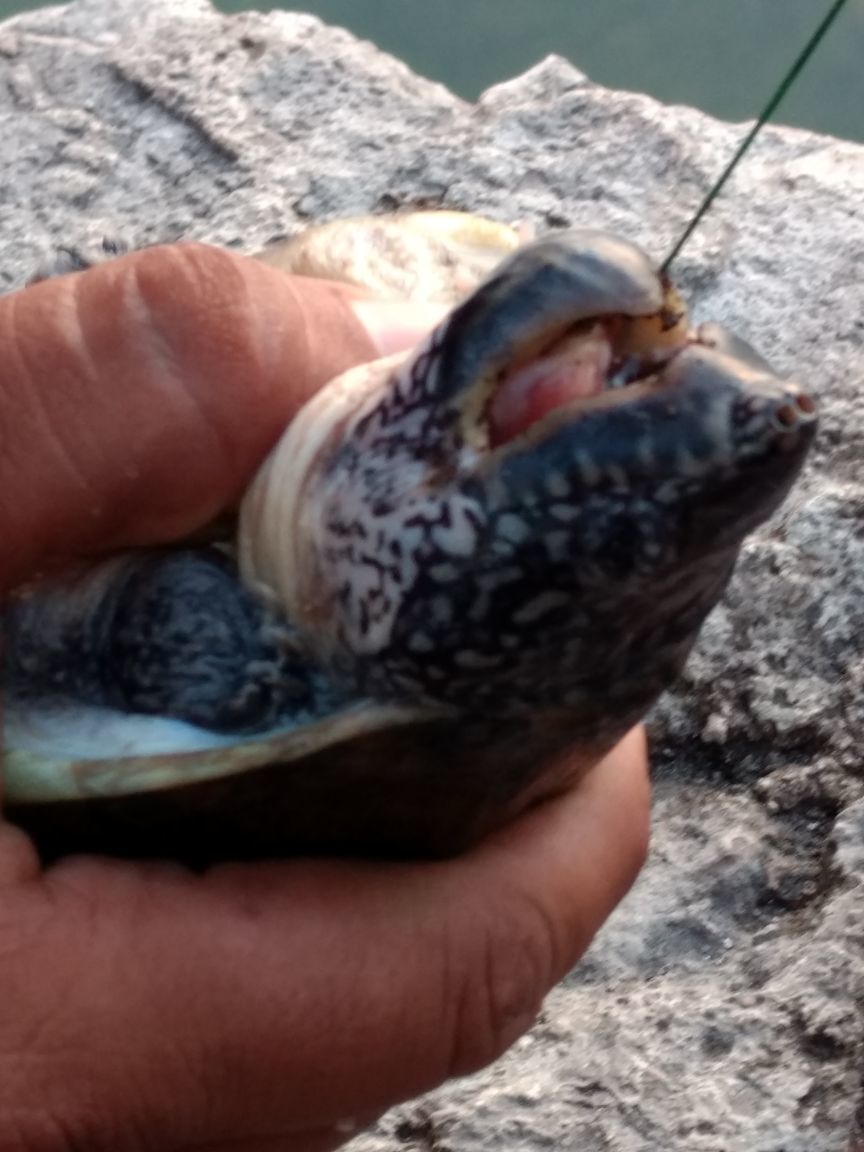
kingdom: Animalia
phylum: Chordata
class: Testudines
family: Kinosternidae
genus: Staurotypus
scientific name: Staurotypus triporcatus
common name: Mexican giant musk turtle
